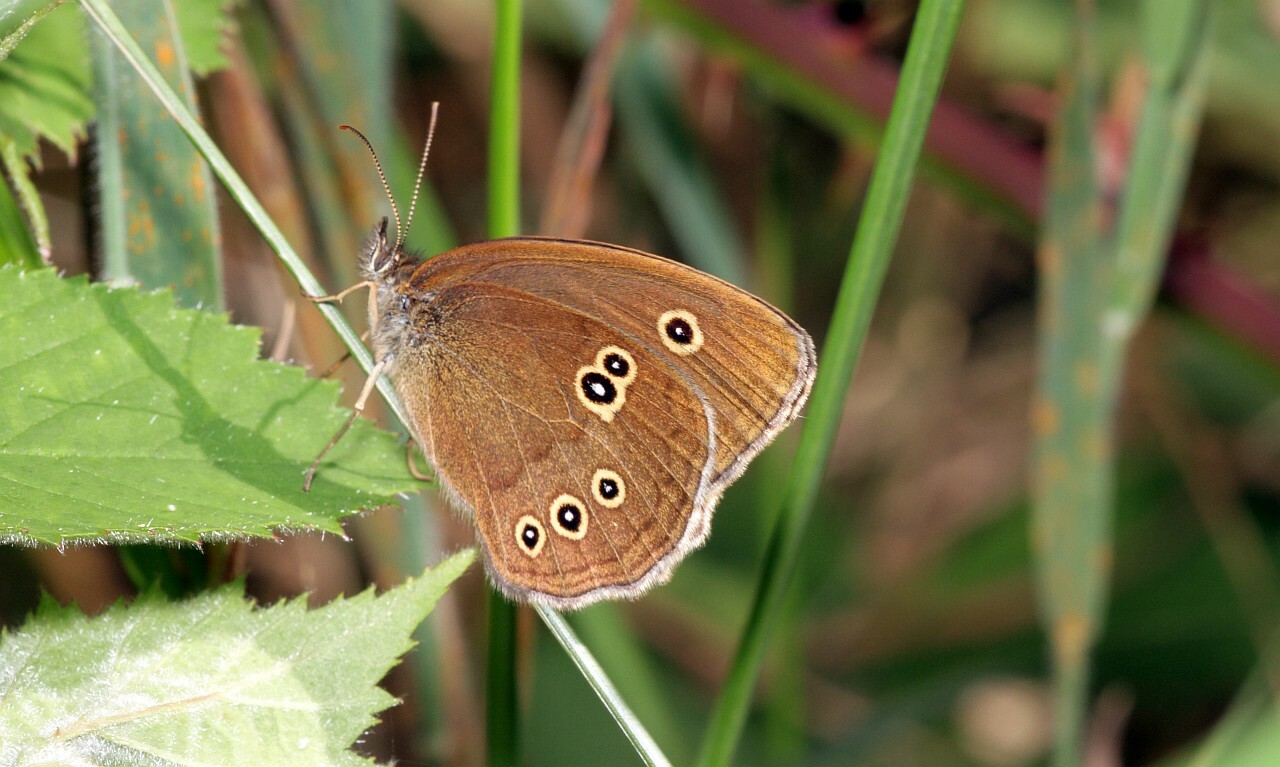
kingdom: Animalia
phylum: Arthropoda
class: Insecta
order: Lepidoptera
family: Nymphalidae
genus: Aphantopus
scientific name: Aphantopus hyperantus
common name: Ringlet
